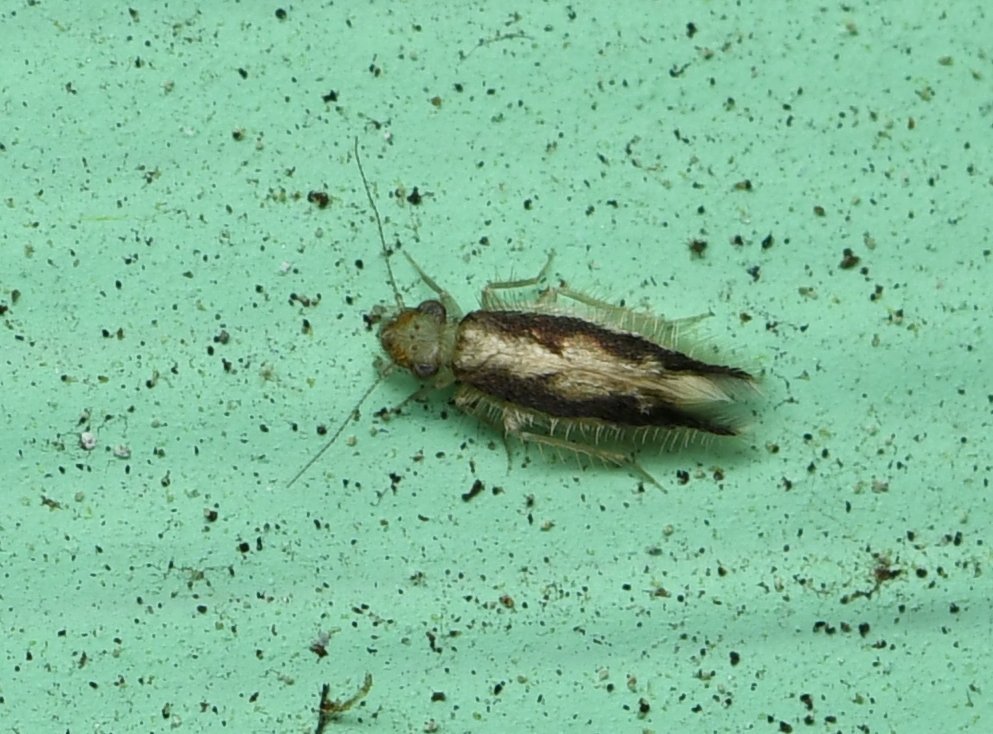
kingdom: Animalia
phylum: Arthropoda
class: Insecta
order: Psocodea
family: Lepidopsocidae
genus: Echmepteryx
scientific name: Echmepteryx madagascariensis
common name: Bark lice
